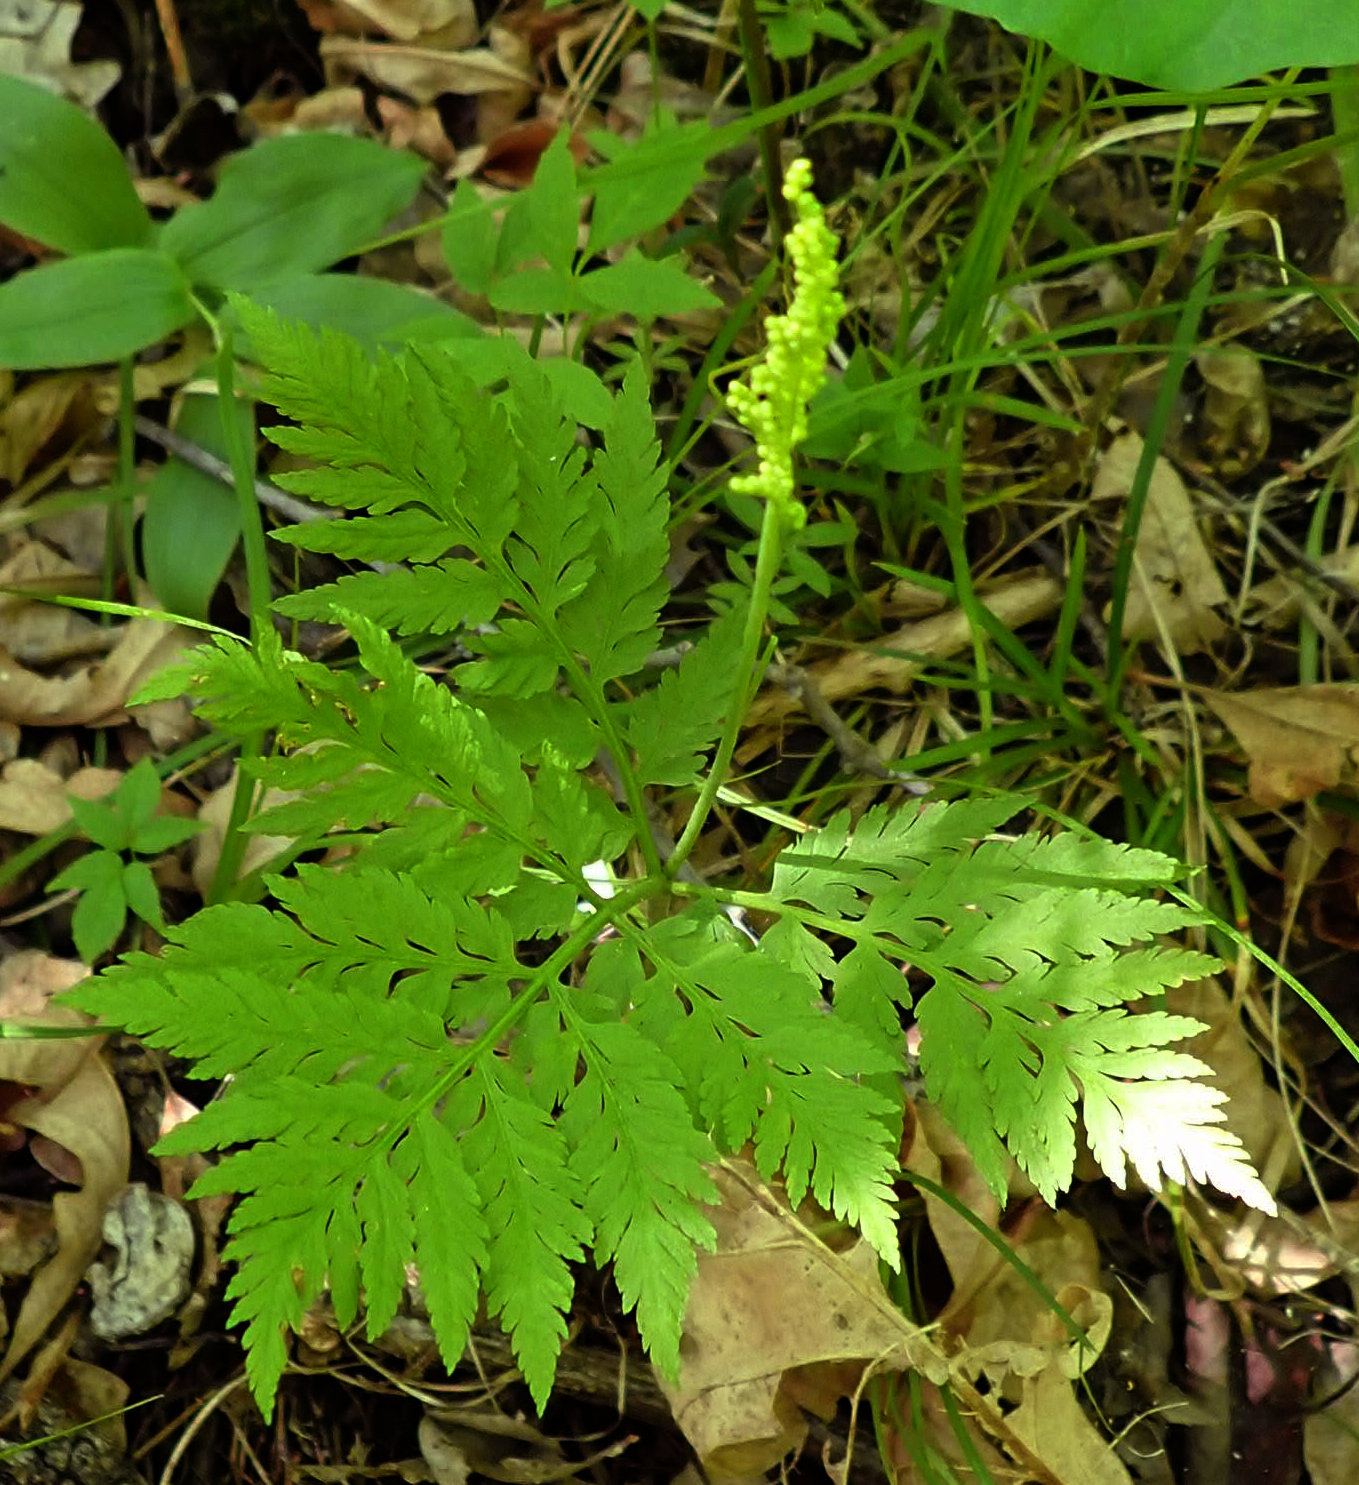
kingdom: Plantae
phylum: Tracheophyta
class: Polypodiopsida
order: Ophioglossales
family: Ophioglossaceae
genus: Botrypus
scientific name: Botrypus virginianus
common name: Common grapefern
